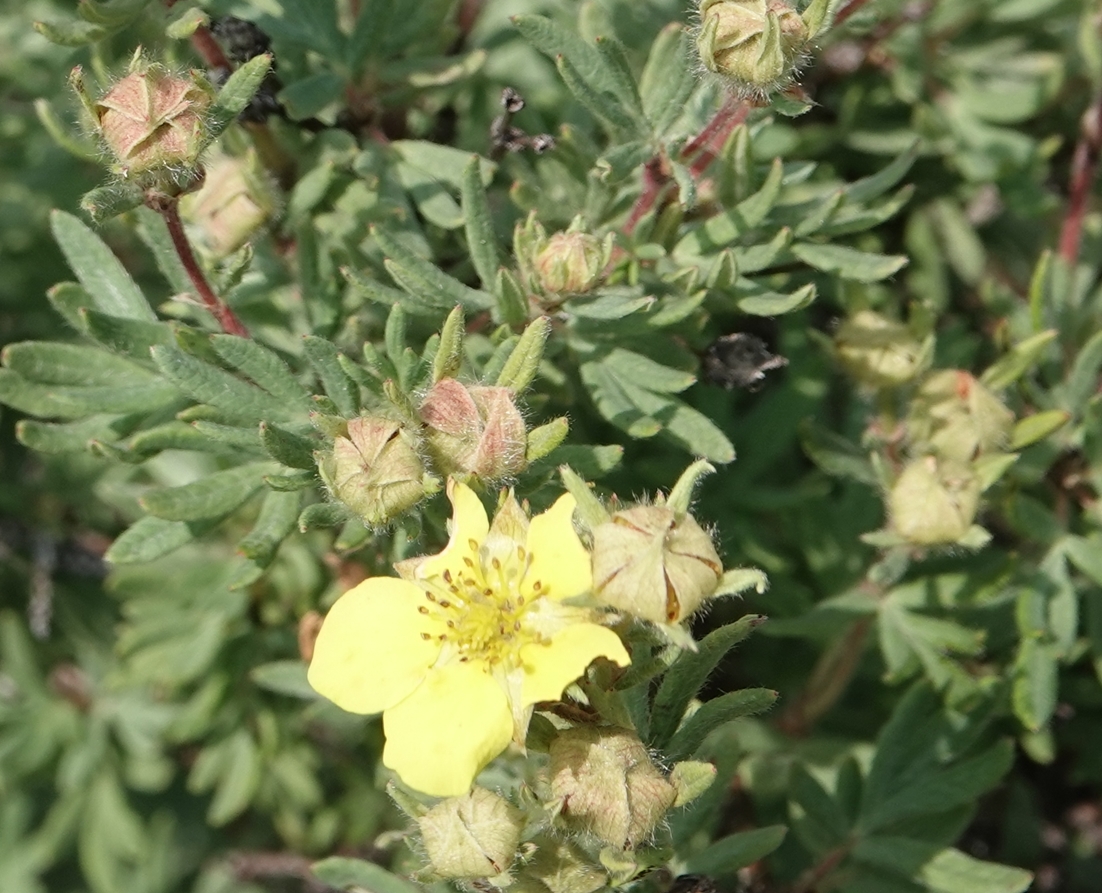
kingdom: Plantae
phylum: Tracheophyta
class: Magnoliopsida
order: Rosales
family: Rosaceae
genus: Dasiphora
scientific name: Dasiphora fruticosa
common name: Shrubby cinquefoil
